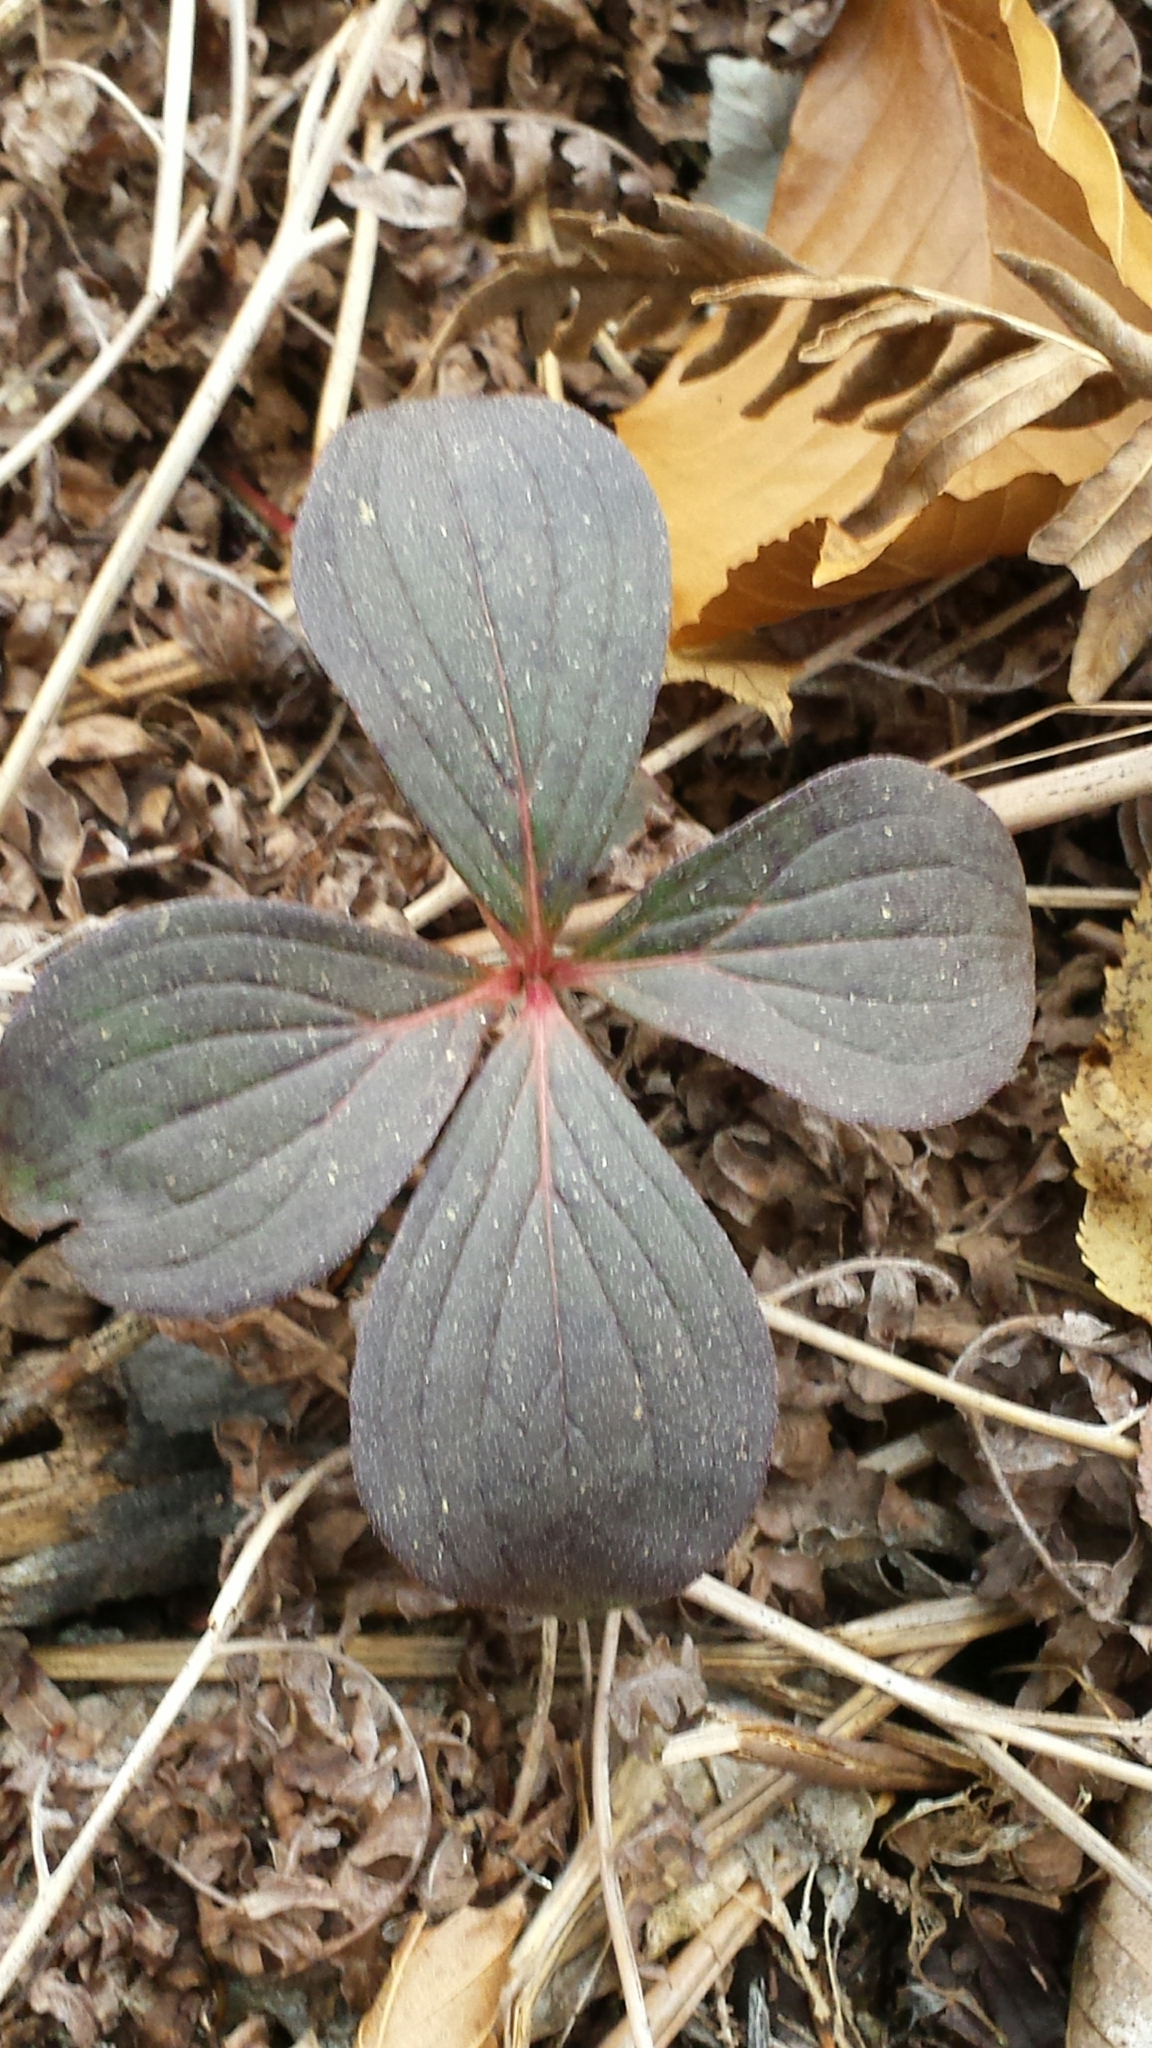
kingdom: Plantae
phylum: Tracheophyta
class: Magnoliopsida
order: Cornales
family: Cornaceae
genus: Cornus
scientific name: Cornus canadensis
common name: Creeping dogwood
